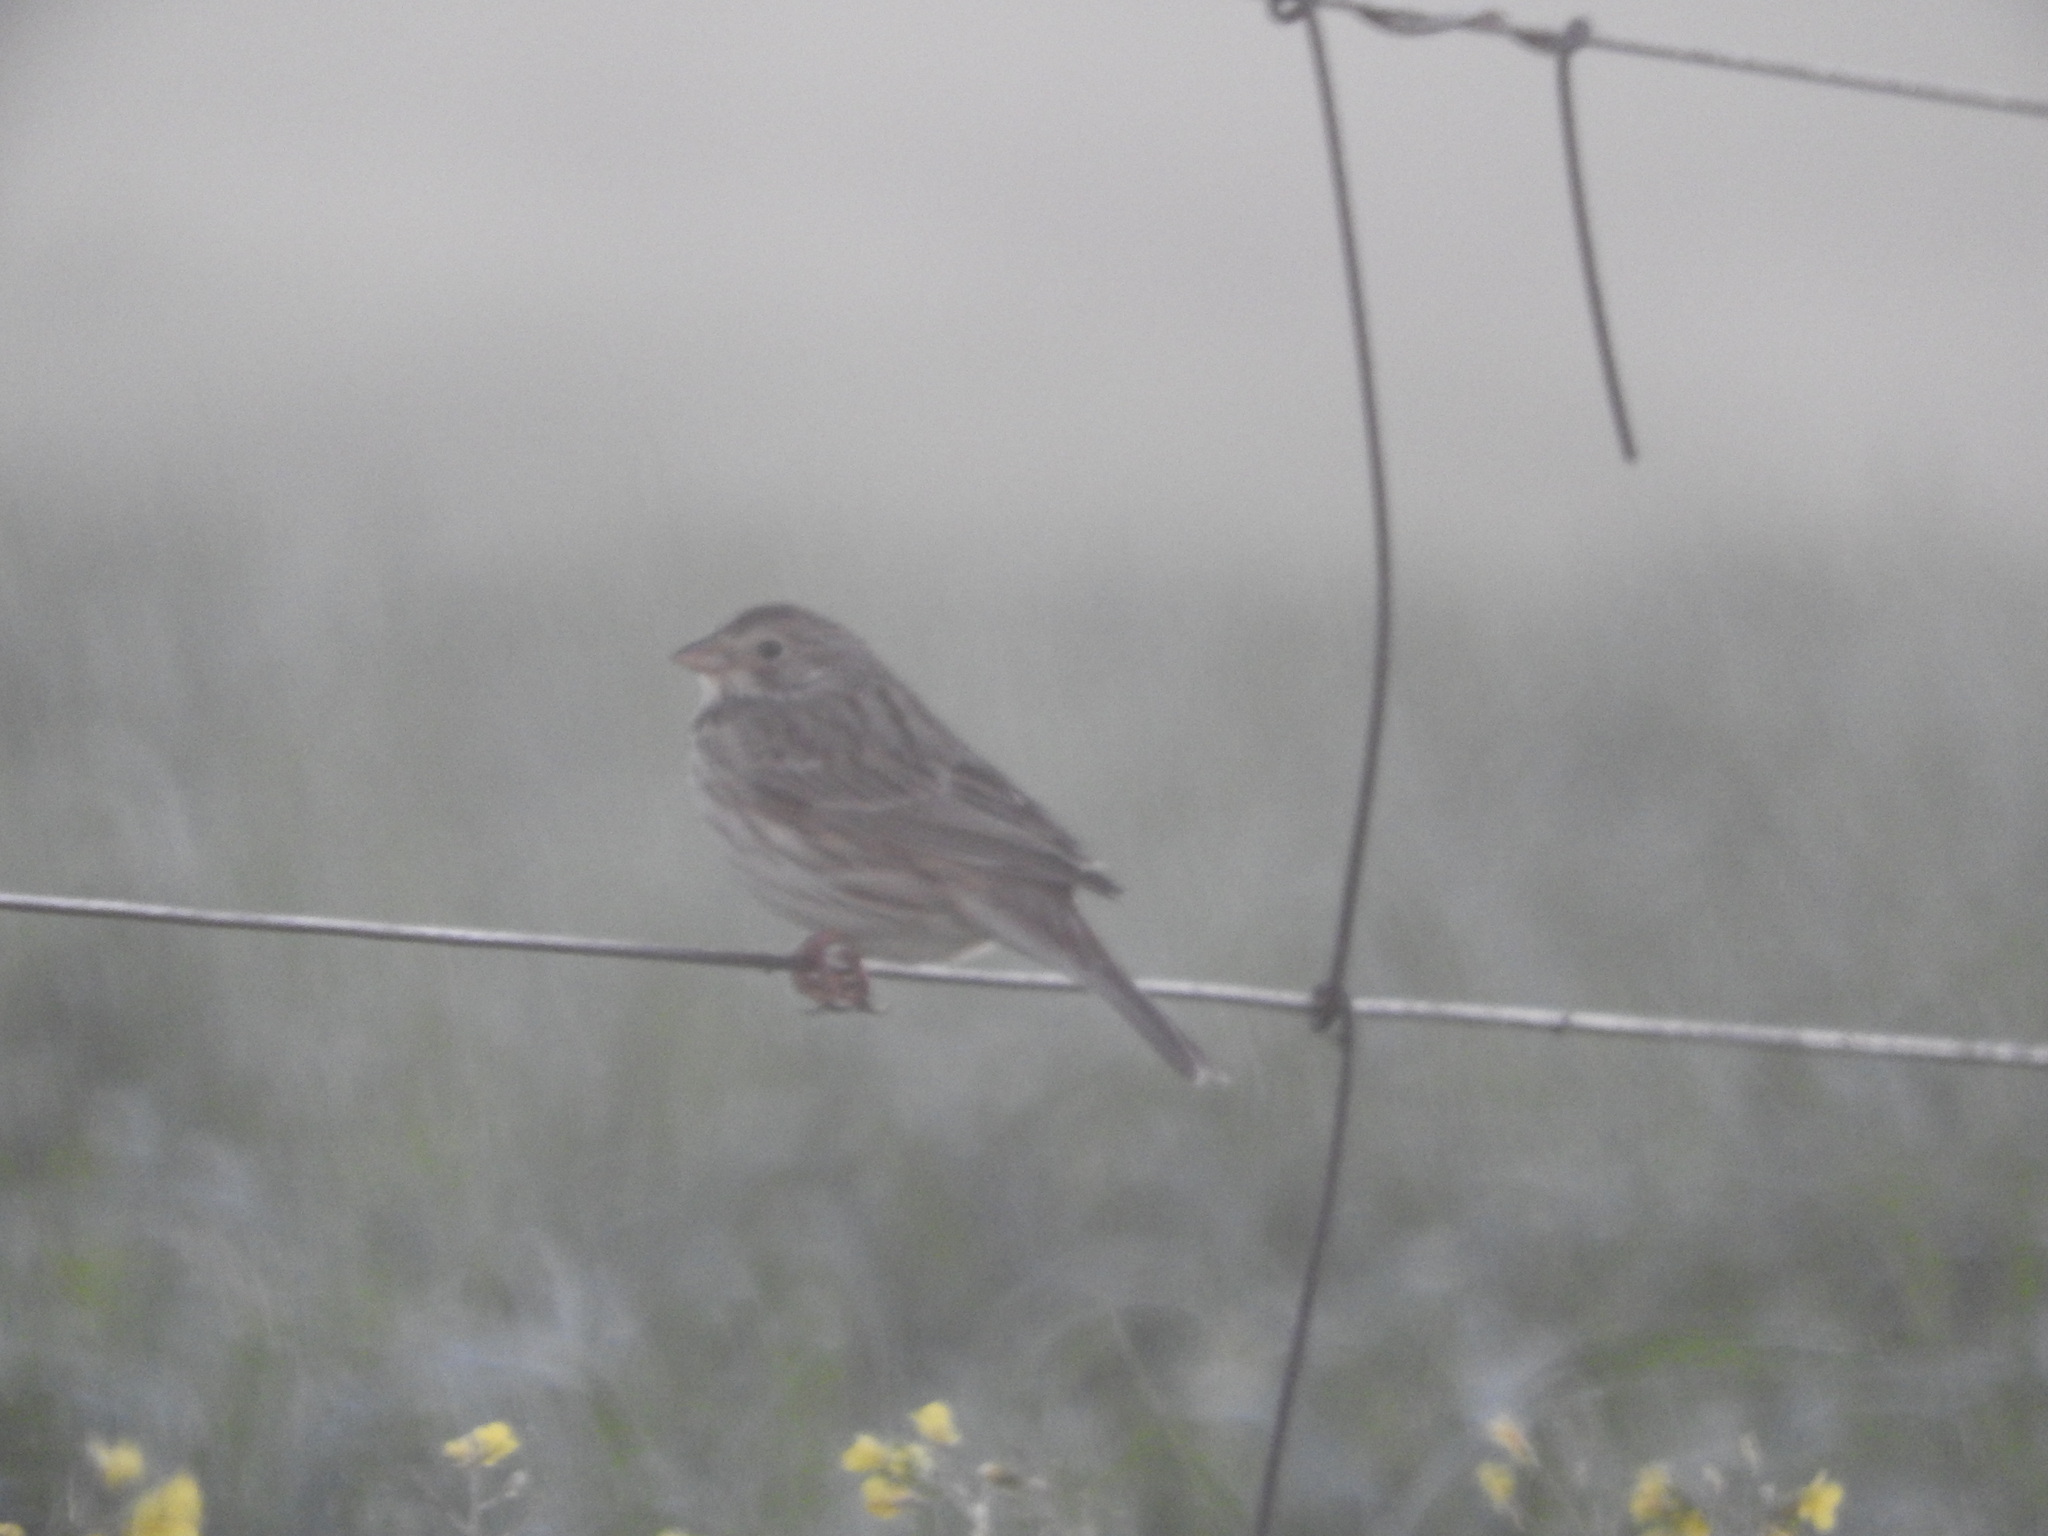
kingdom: Animalia
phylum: Chordata
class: Aves
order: Passeriformes
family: Emberizidae
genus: Emberiza
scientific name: Emberiza calandra
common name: Corn bunting
